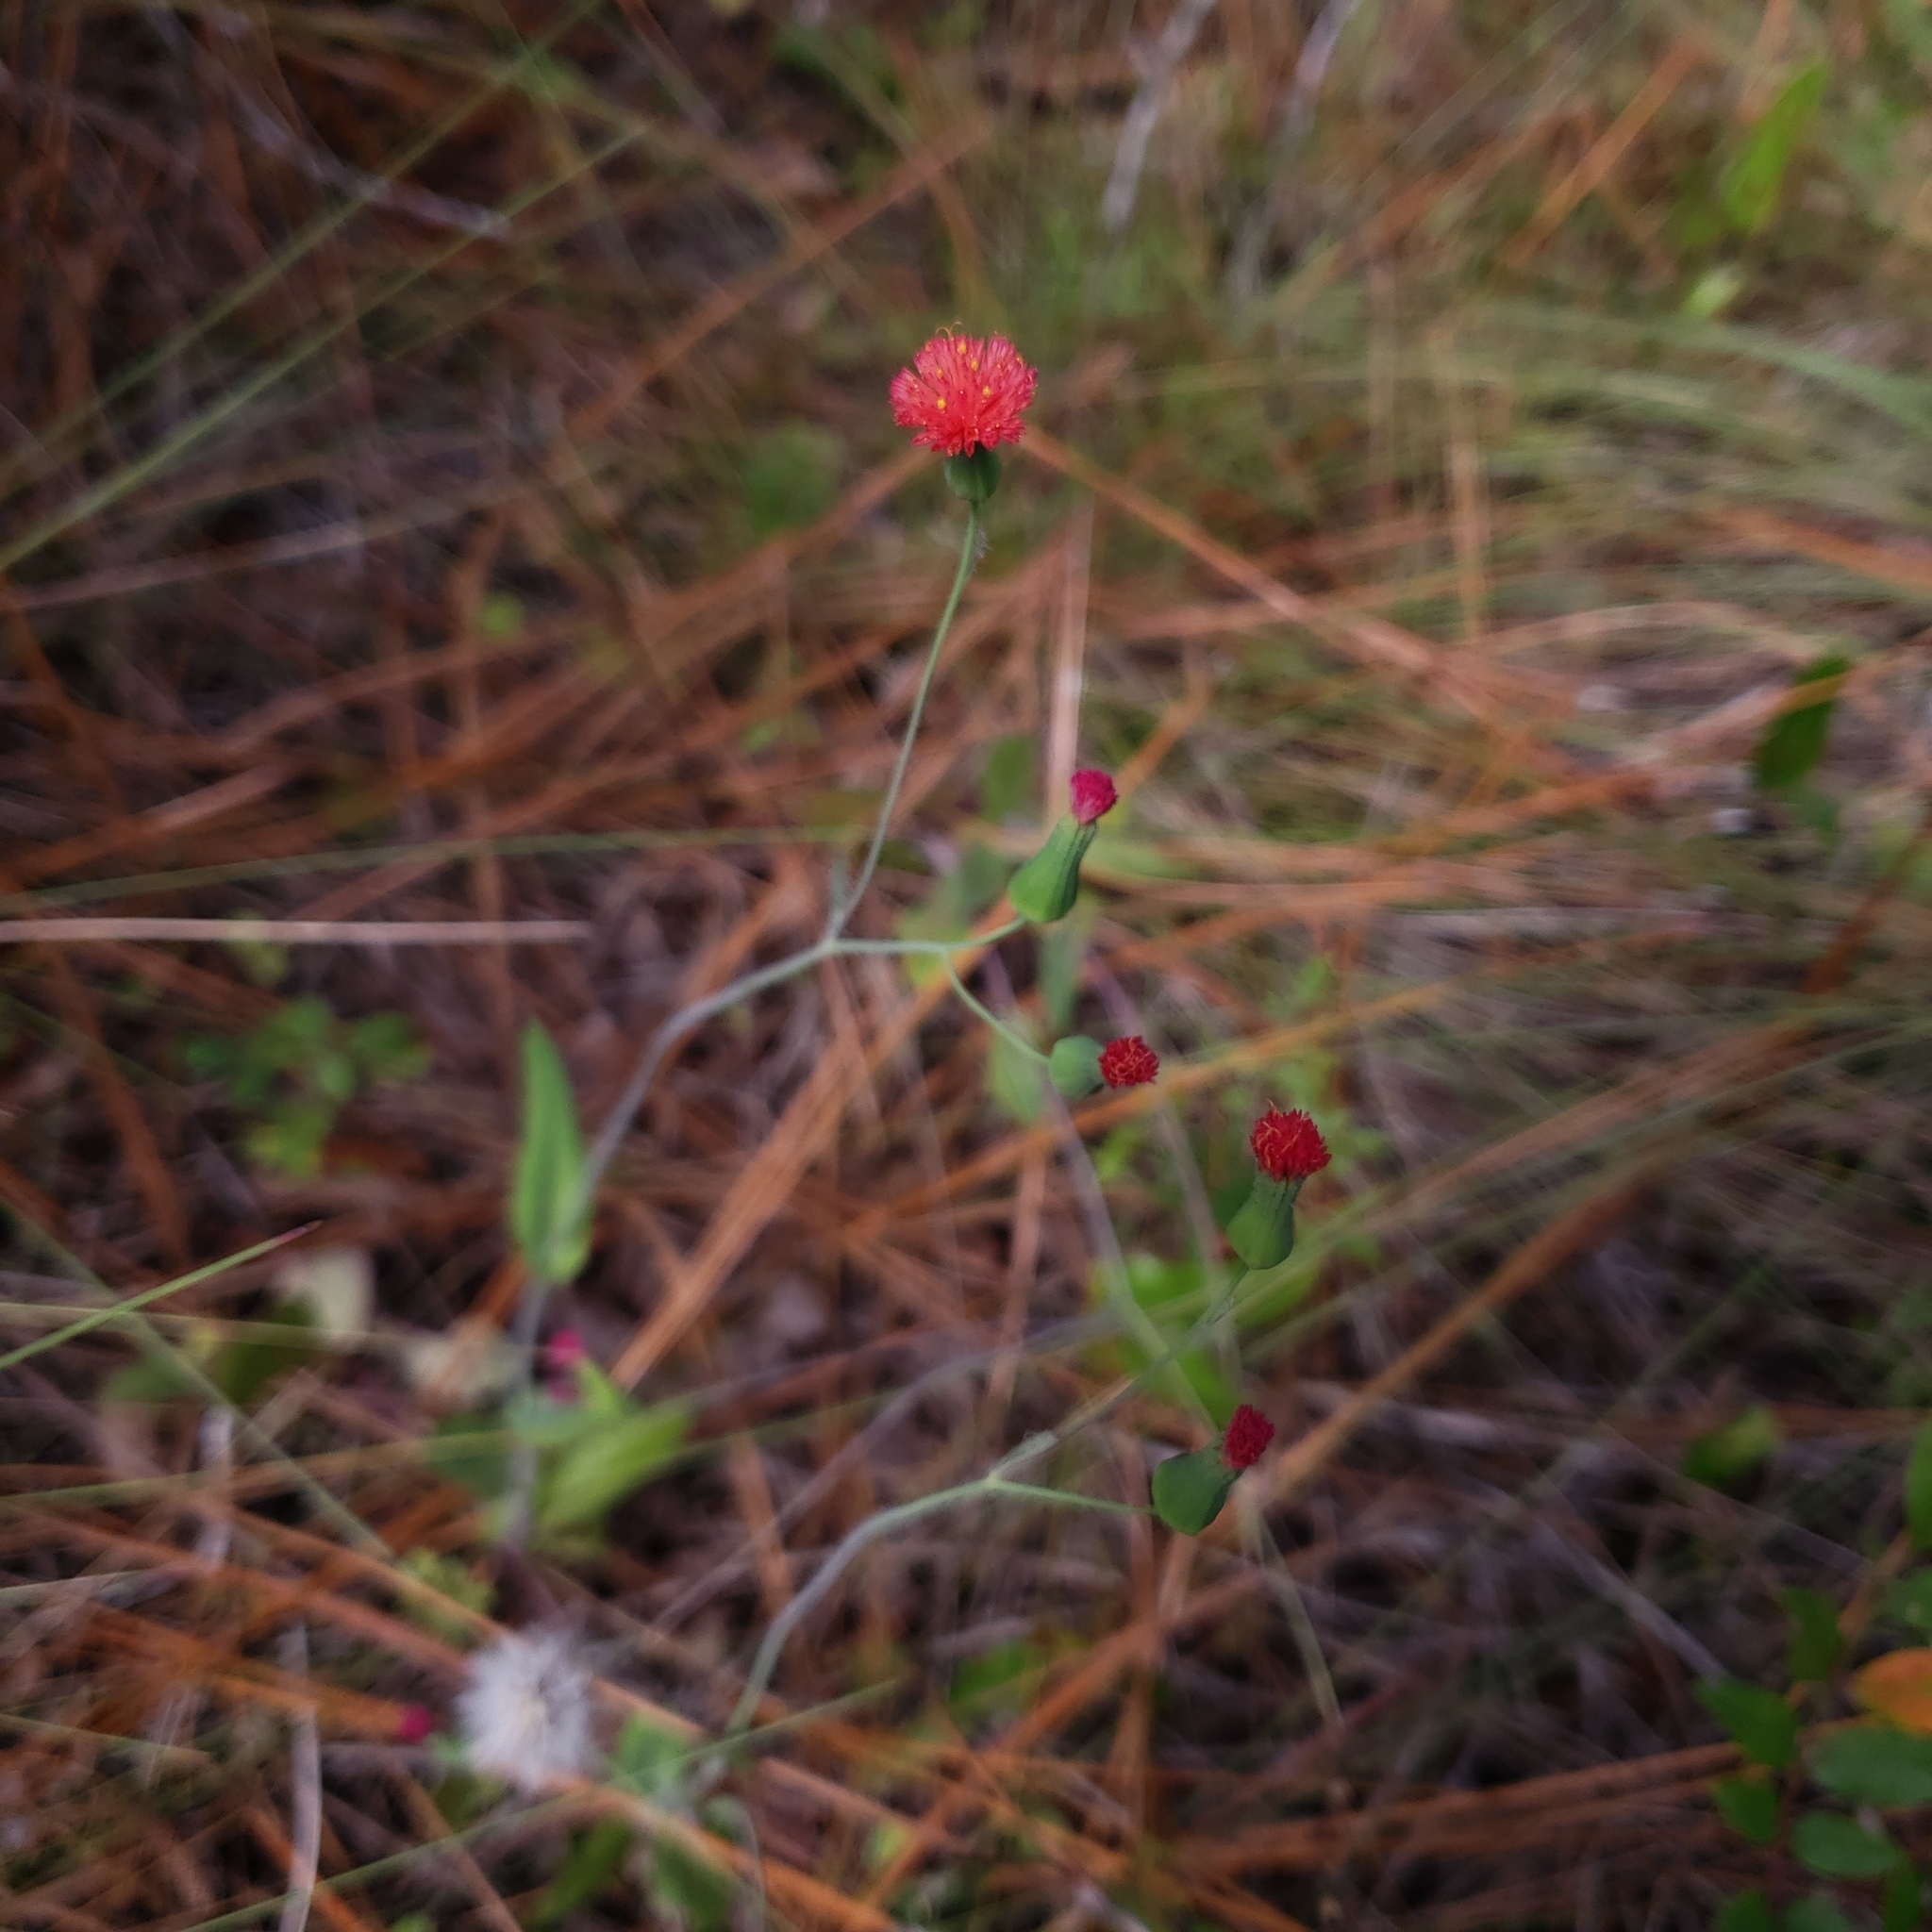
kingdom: Plantae
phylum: Tracheophyta
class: Magnoliopsida
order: Asterales
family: Asteraceae
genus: Emilia
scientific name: Emilia fosbergii
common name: Florida tasselflower
